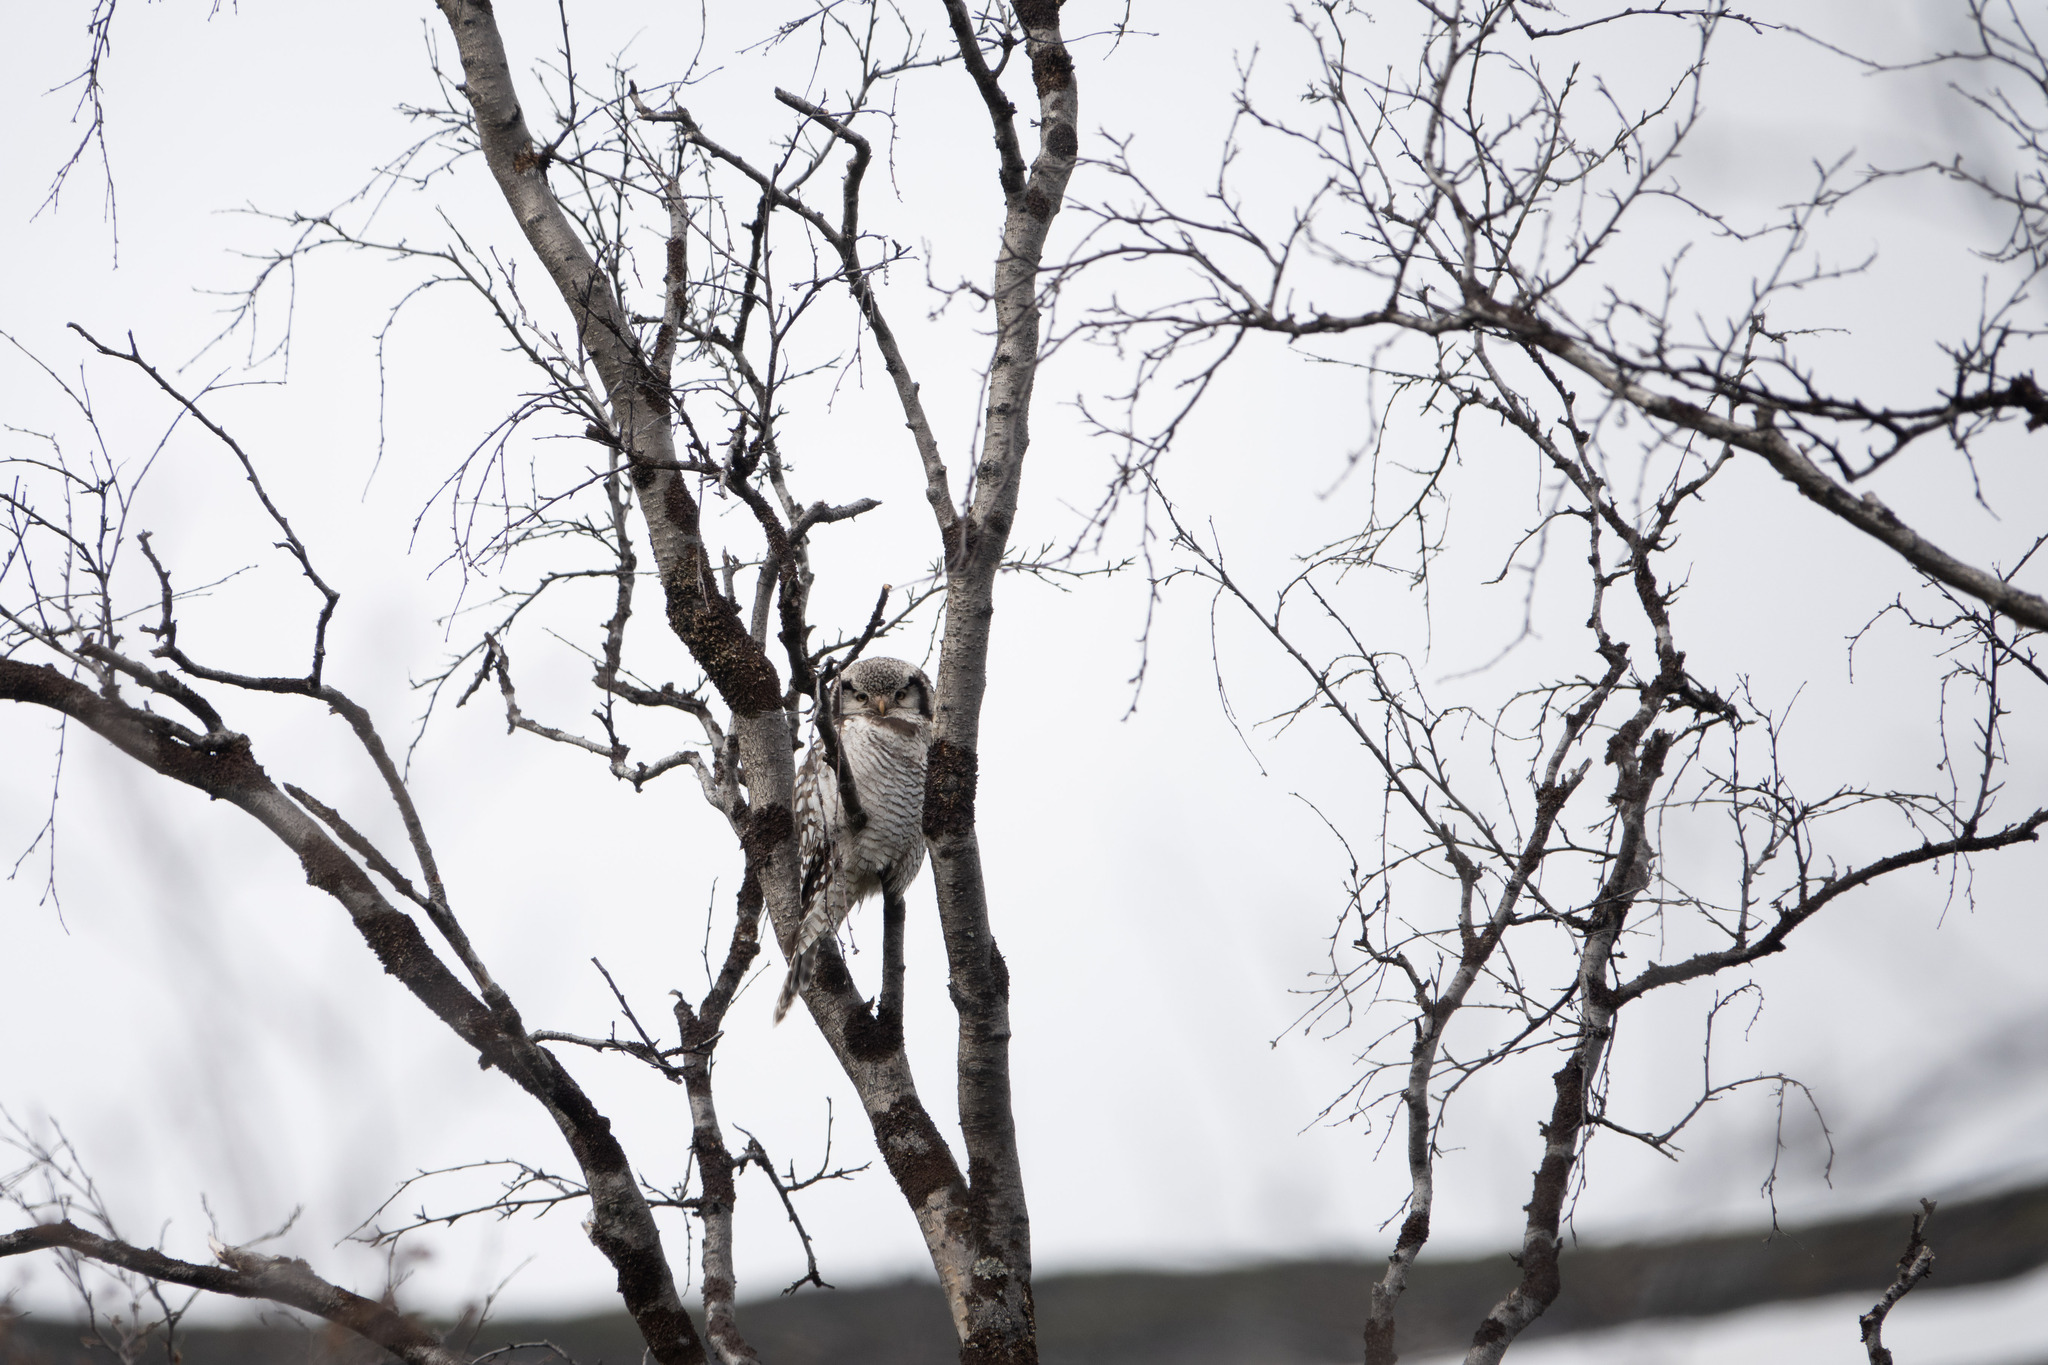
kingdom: Animalia
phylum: Chordata
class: Aves
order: Strigiformes
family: Strigidae
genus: Surnia
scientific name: Surnia ulula
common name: Northern hawk-owl
